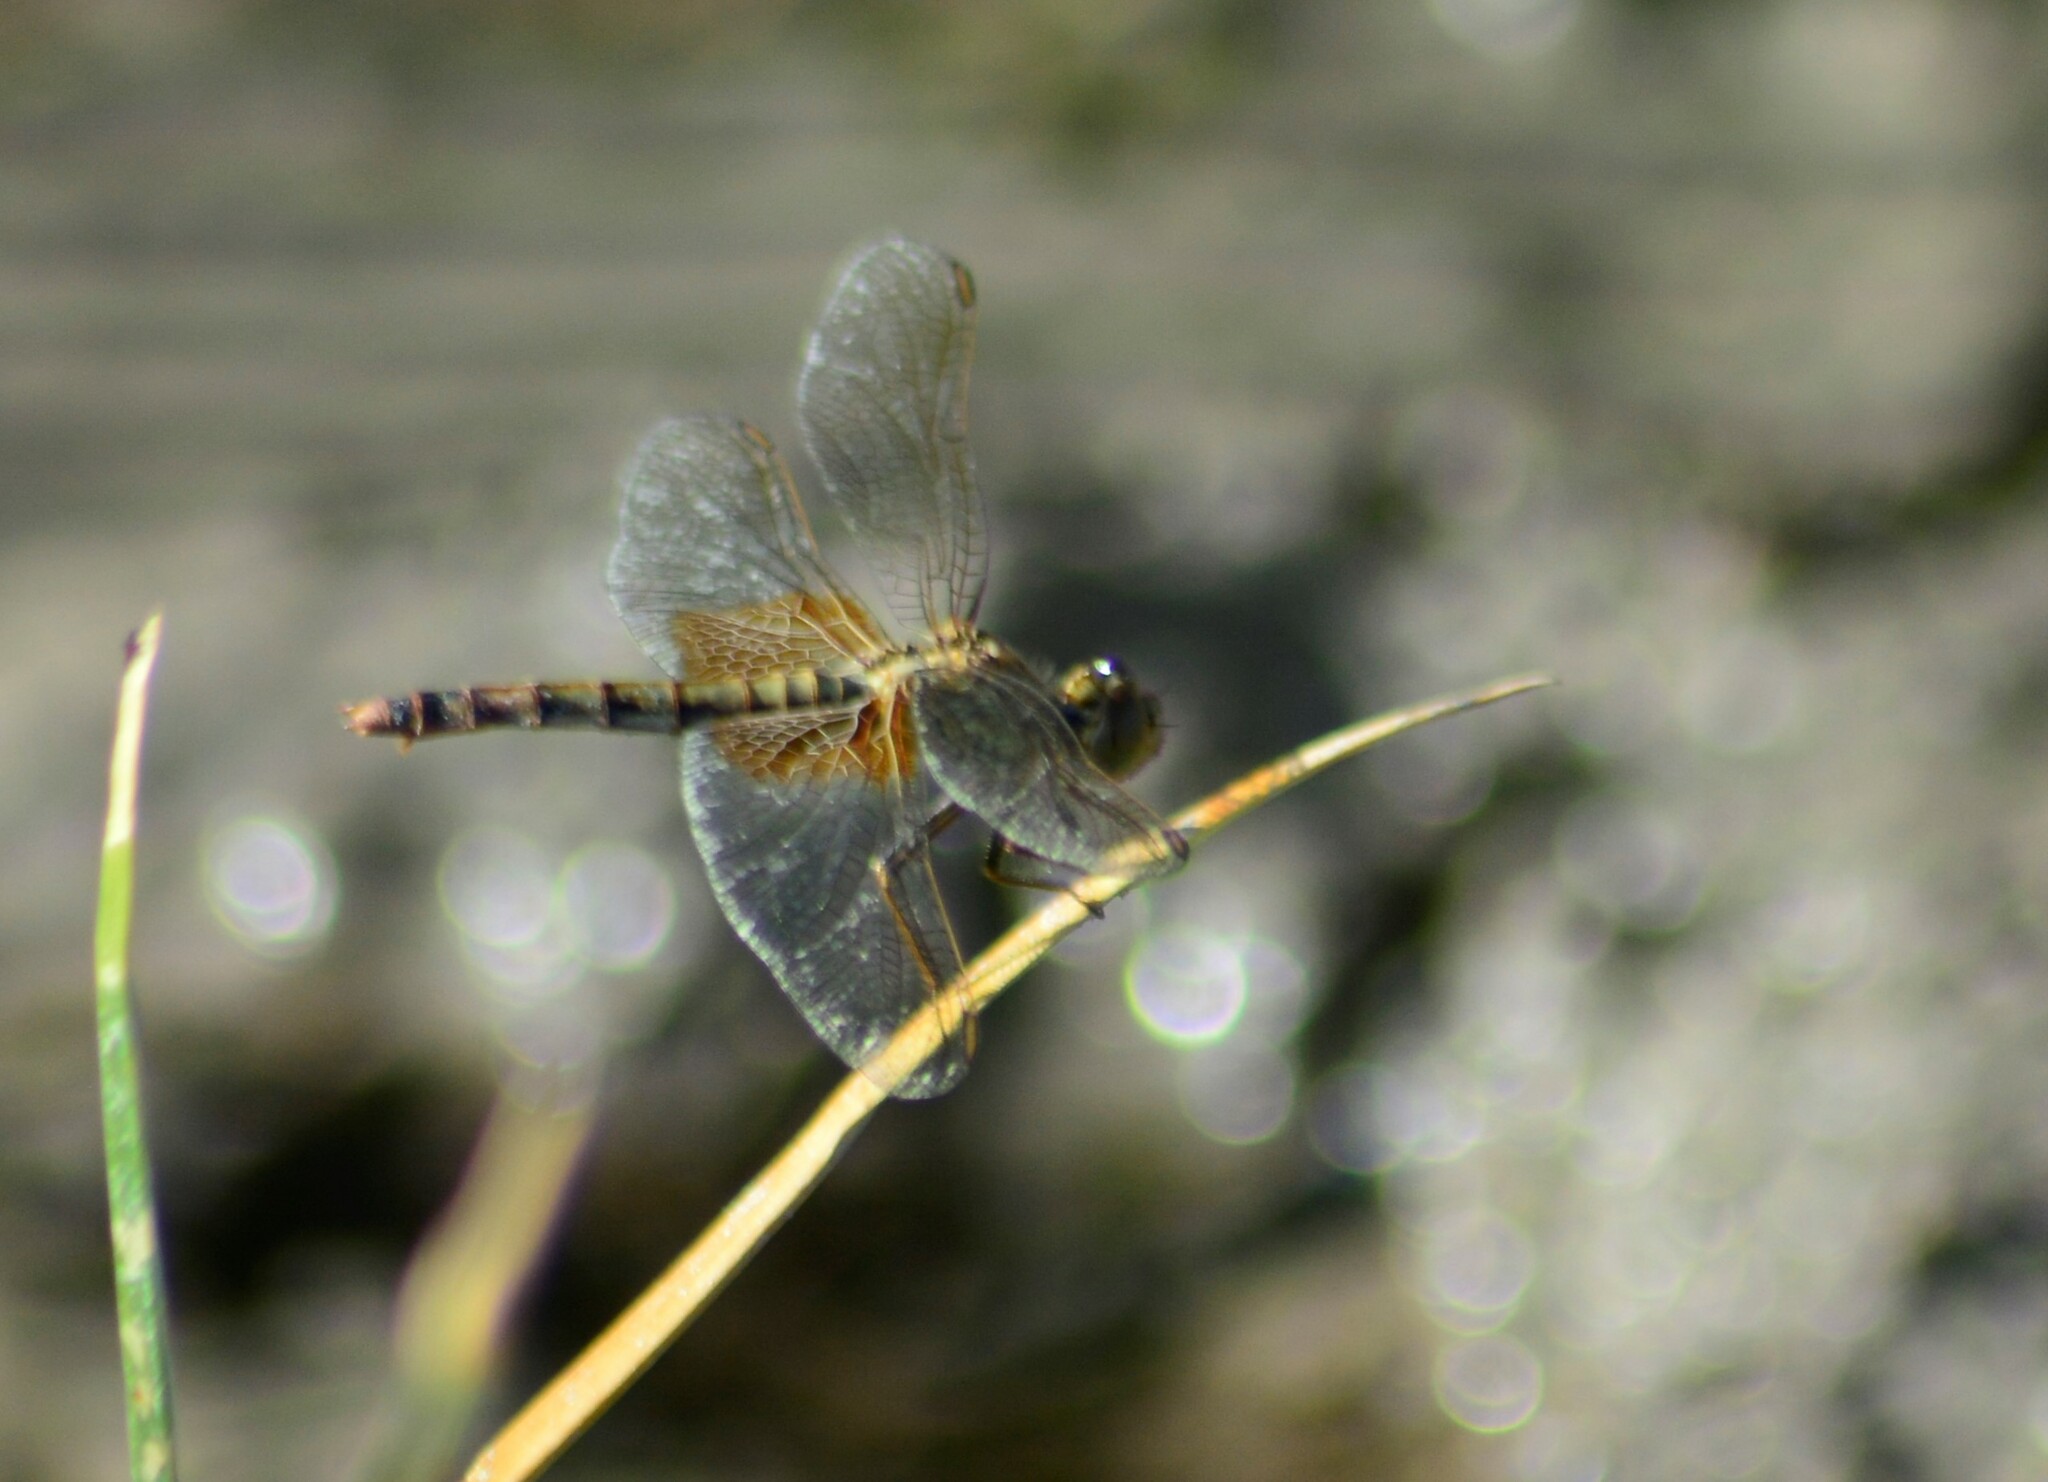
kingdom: Animalia
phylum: Arthropoda
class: Insecta
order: Odonata
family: Libellulidae
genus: Erythrodiplax
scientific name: Erythrodiplax corallina
